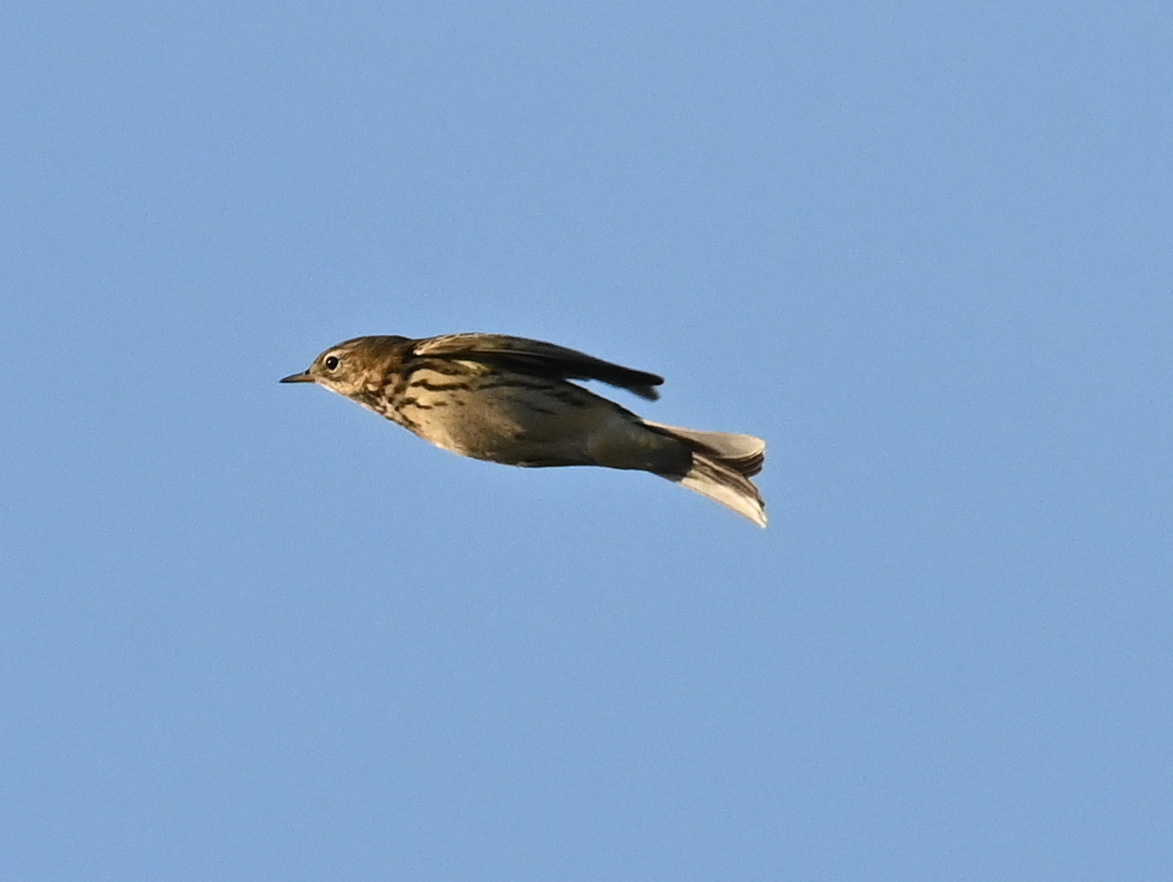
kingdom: Animalia
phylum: Chordata
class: Aves
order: Passeriformes
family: Motacillidae
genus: Anthus
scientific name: Anthus pratensis
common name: Meadow pipit
